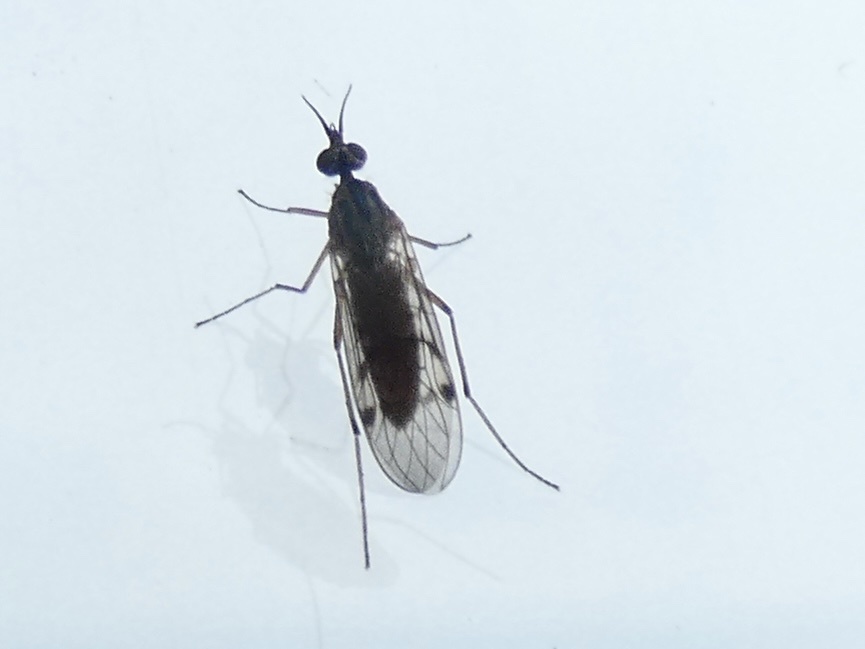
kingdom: Animalia
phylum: Arthropoda
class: Insecta
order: Diptera
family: Anisopodidae
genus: Sylvicola
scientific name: Sylvicola punctatus
